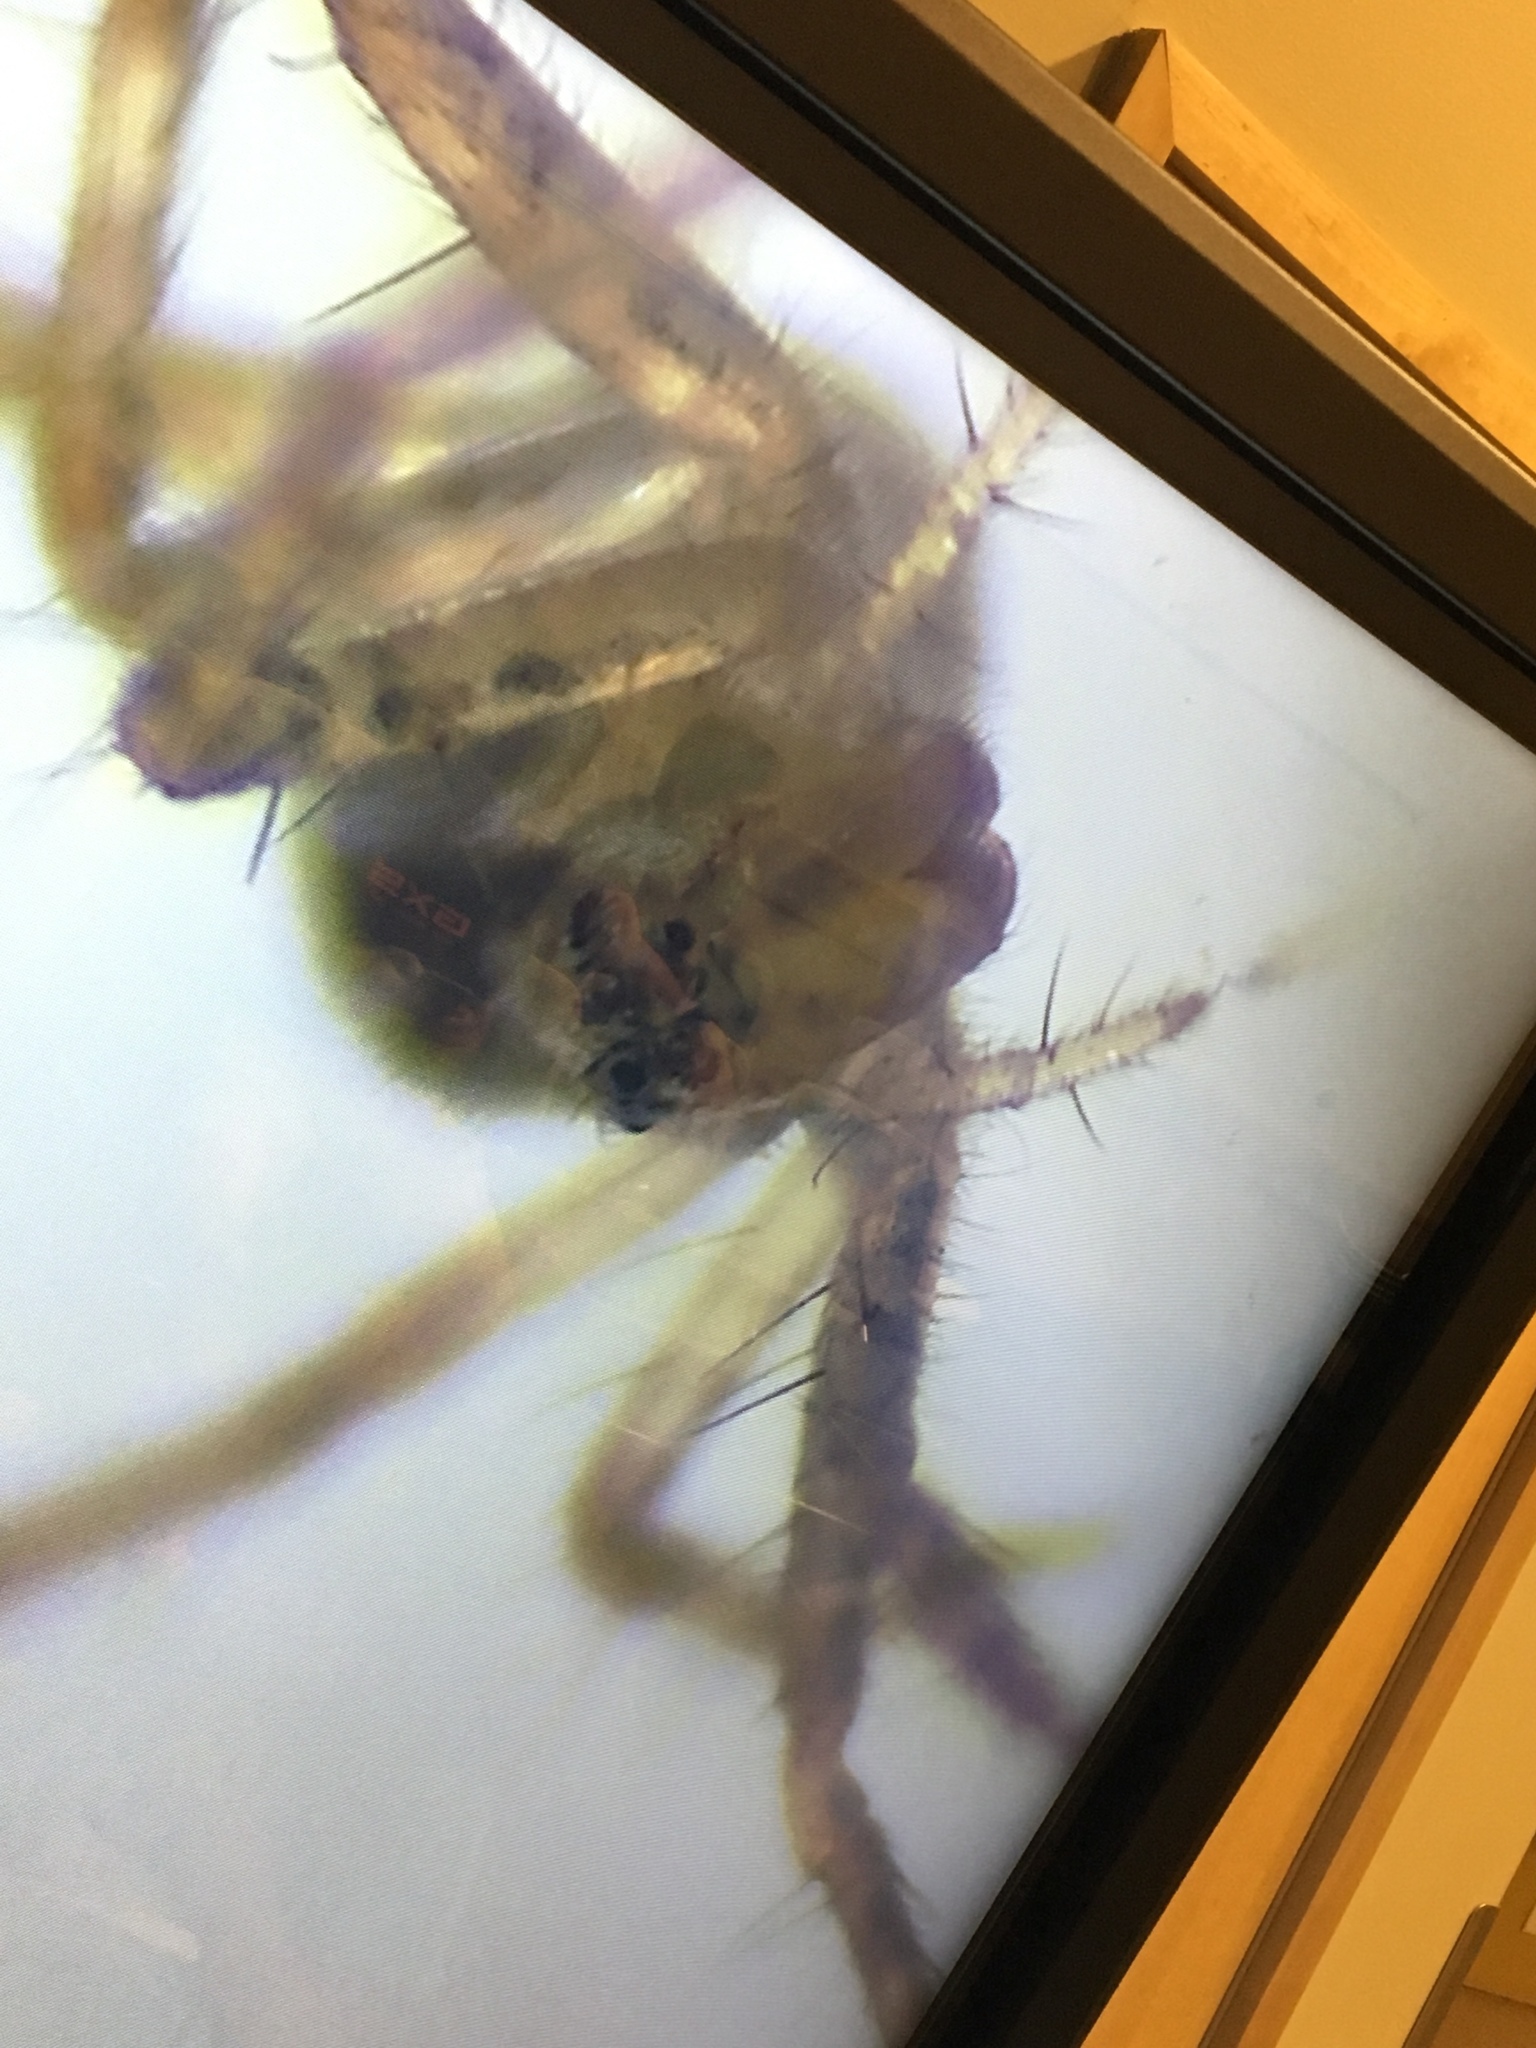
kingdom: Animalia
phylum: Arthropoda
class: Arachnida
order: Araneae
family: Pisauridae
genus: Pisaurina
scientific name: Pisaurina mira
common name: American nursery web spider
